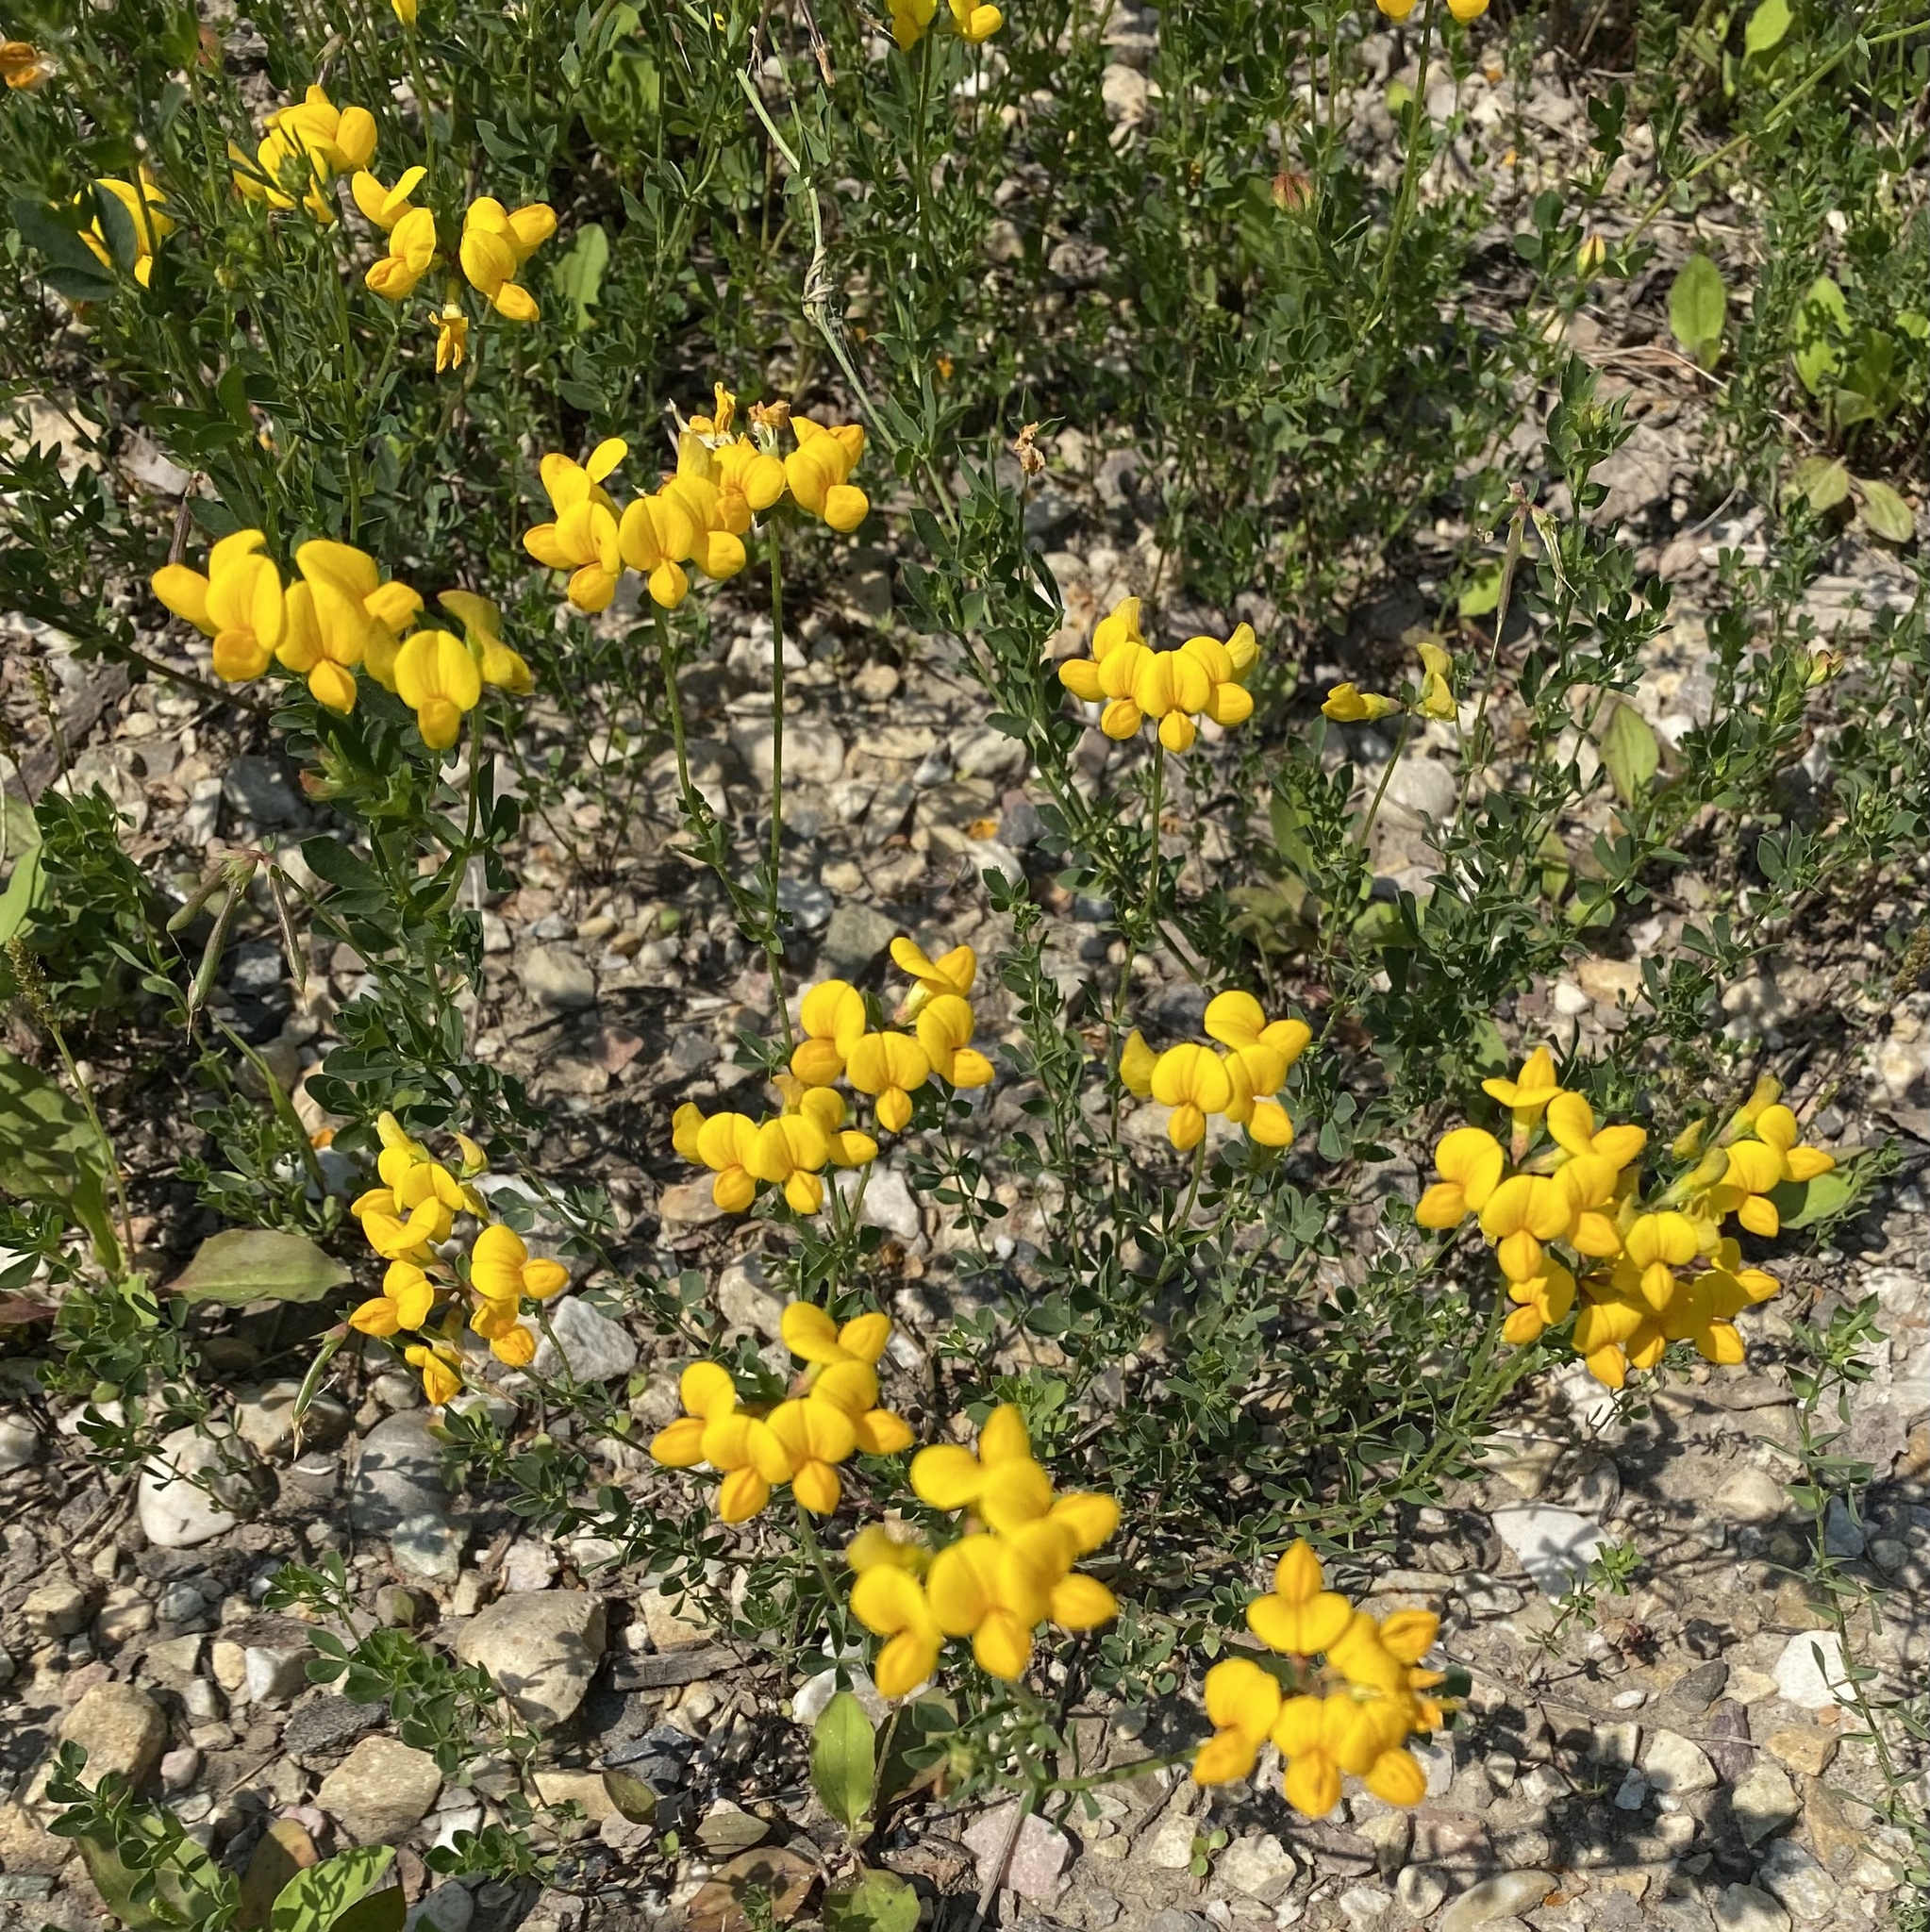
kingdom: Plantae
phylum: Tracheophyta
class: Magnoliopsida
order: Fabales
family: Fabaceae
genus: Lotus
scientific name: Lotus corniculatus
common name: Common bird's-foot-trefoil
